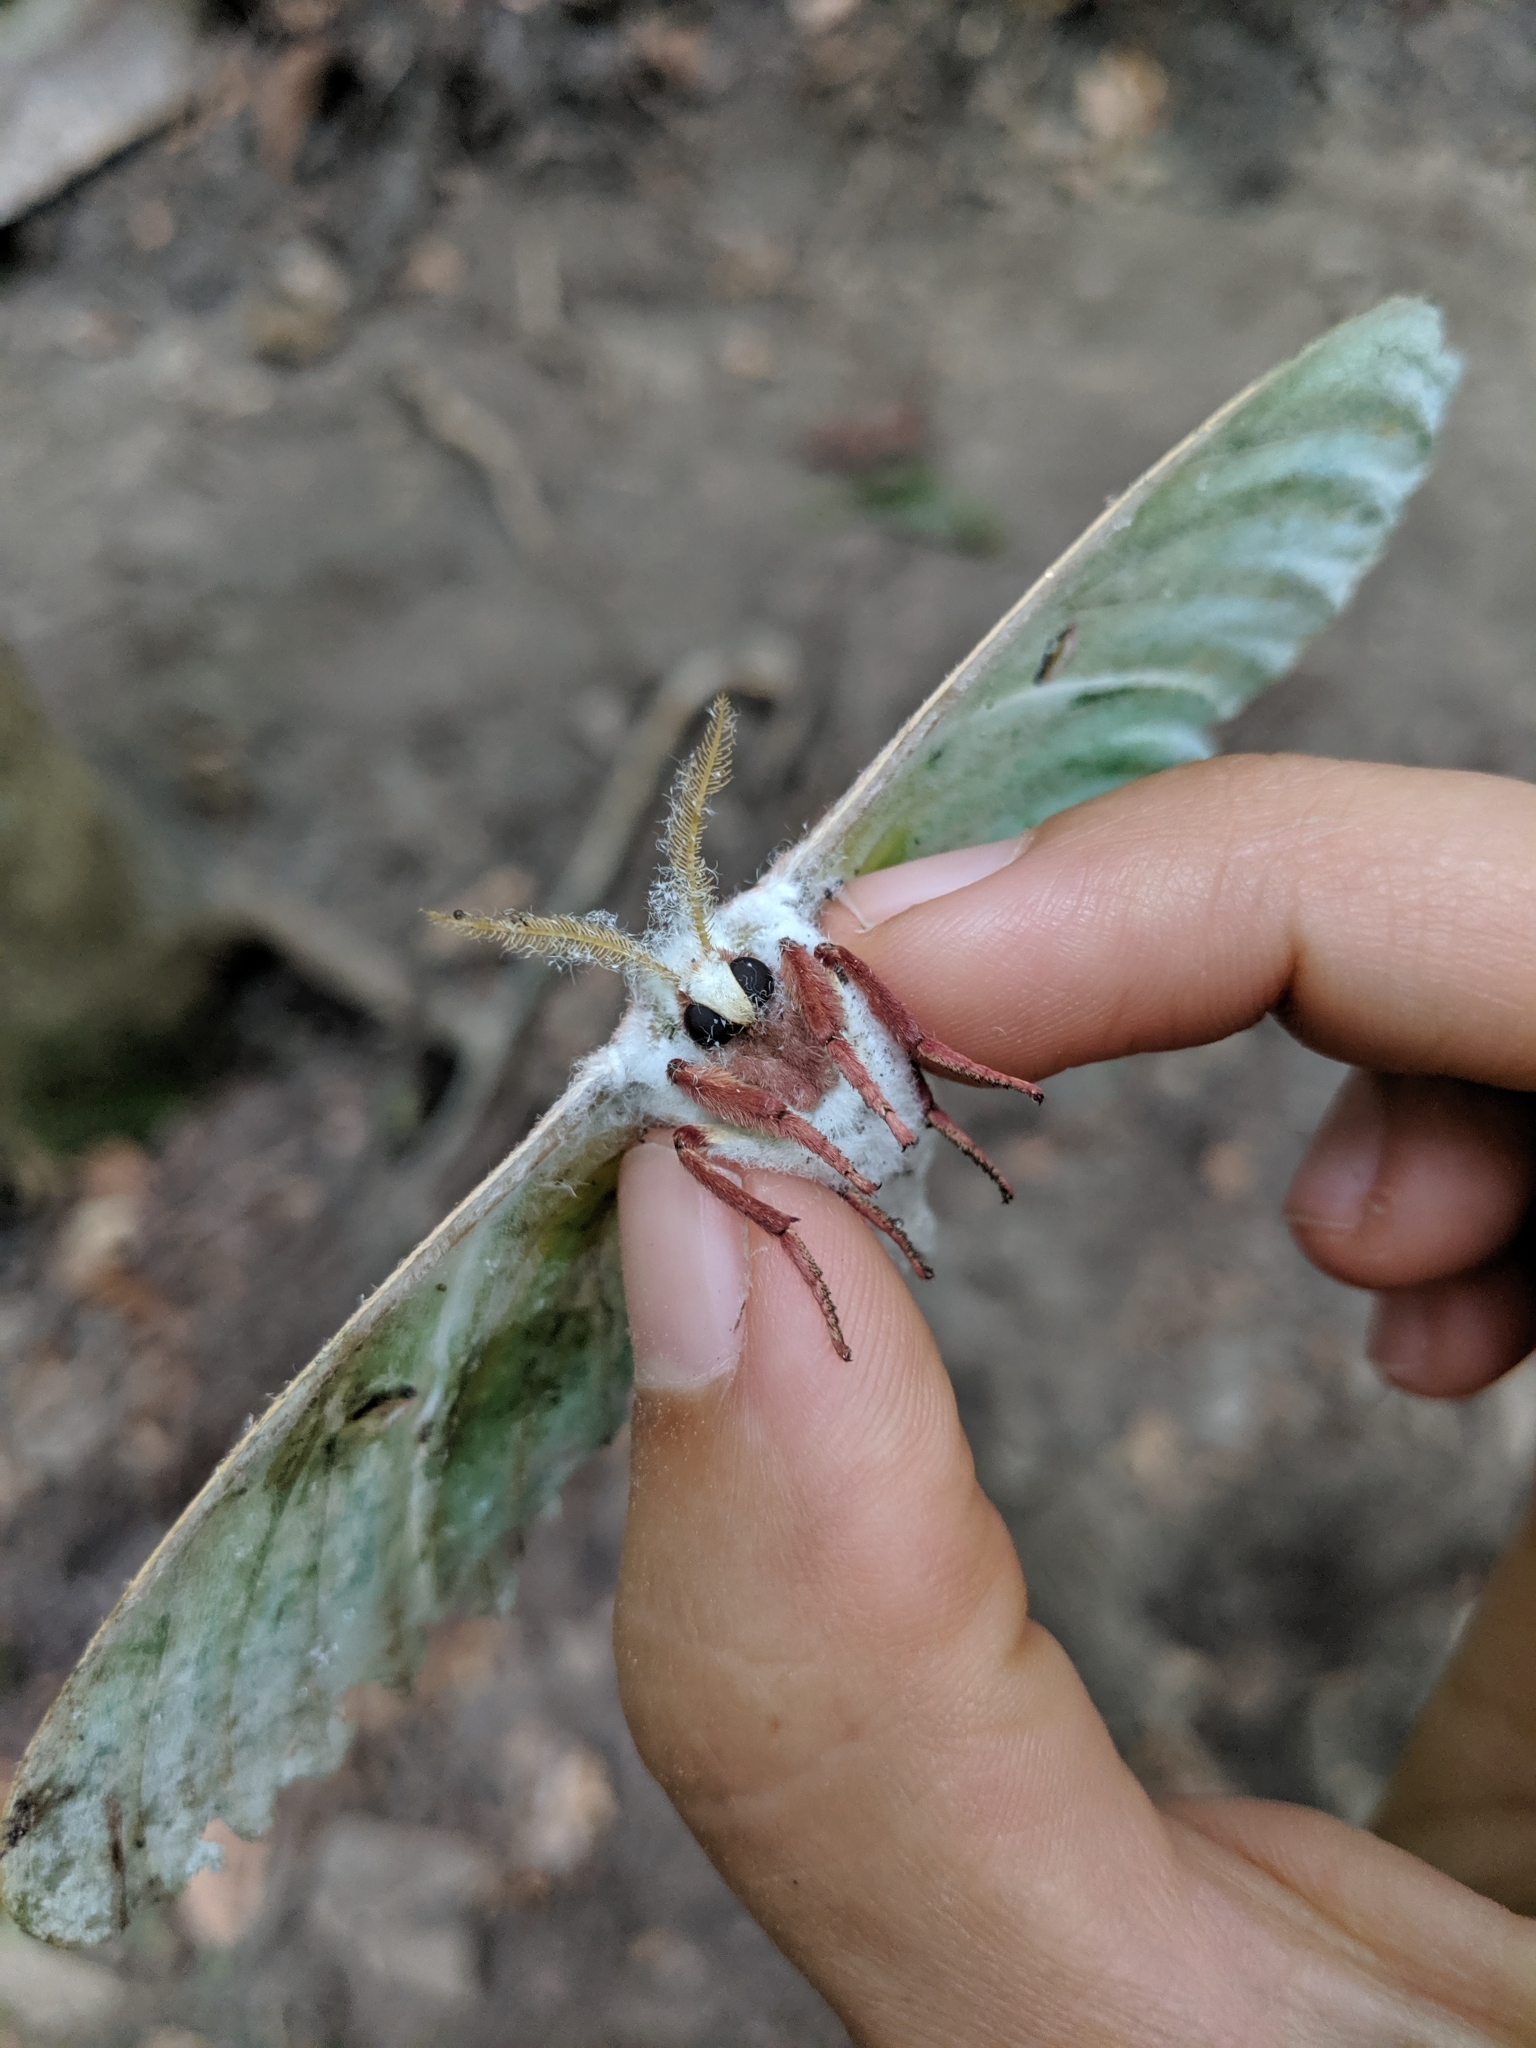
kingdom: Animalia
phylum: Arthropoda
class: Insecta
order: Lepidoptera
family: Saturniidae
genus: Actias
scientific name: Actias luna
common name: Luna moth
